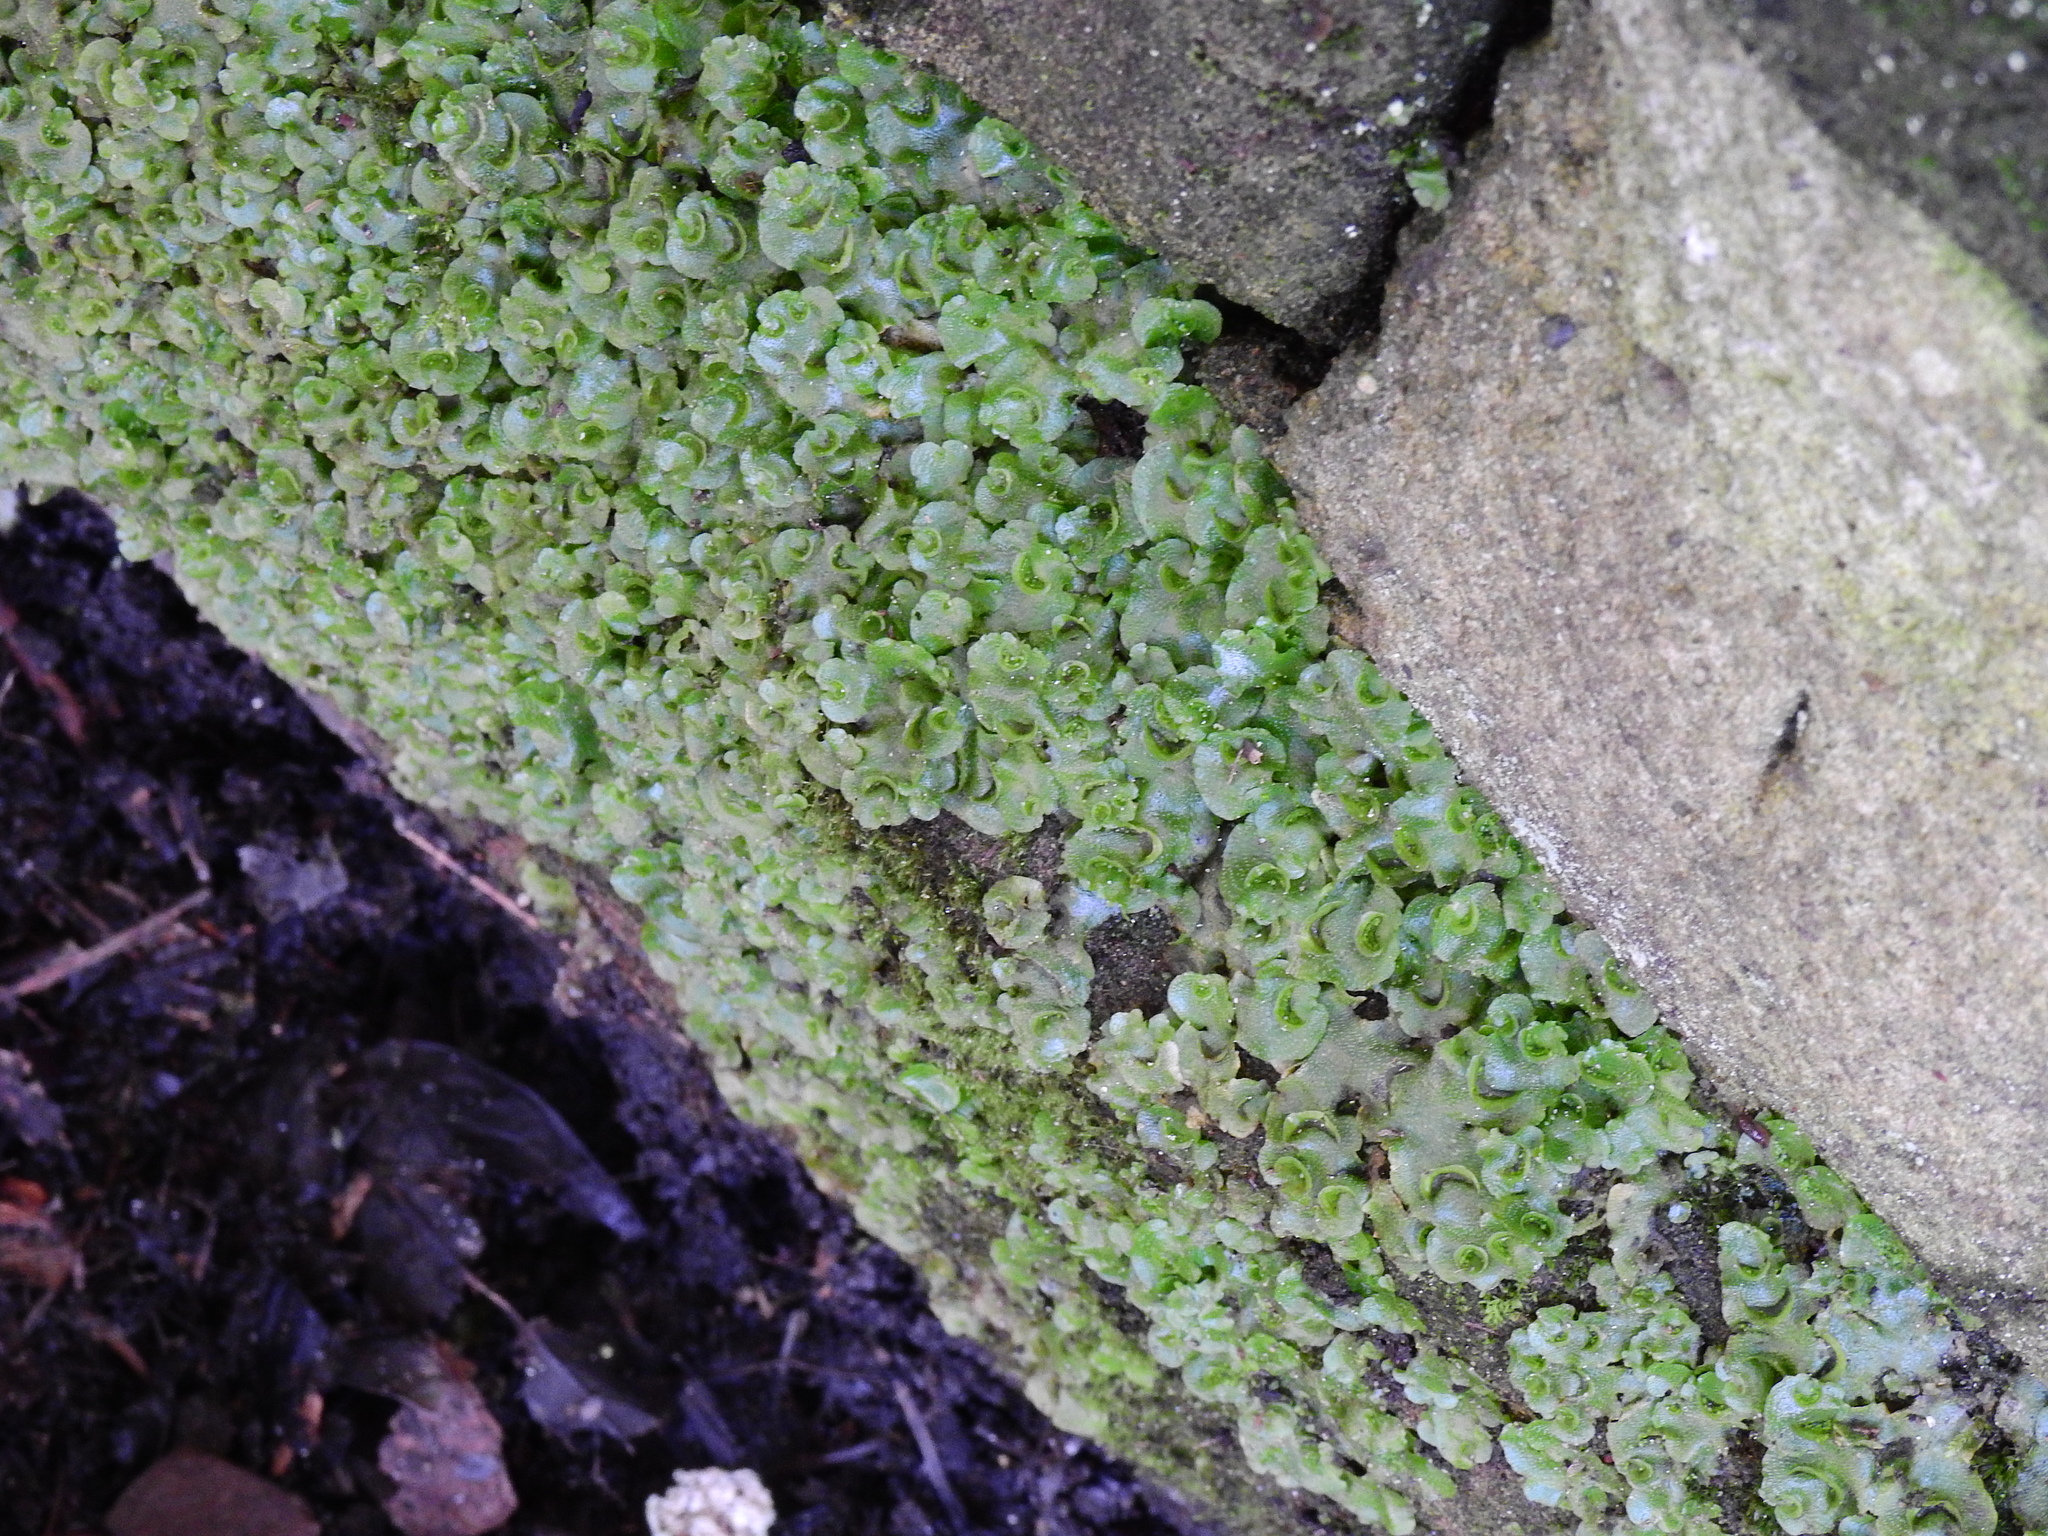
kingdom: Plantae
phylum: Marchantiophyta
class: Marchantiopsida
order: Lunulariales
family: Lunulariaceae
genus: Lunularia
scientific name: Lunularia cruciata
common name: Crescent-cup liverwort
